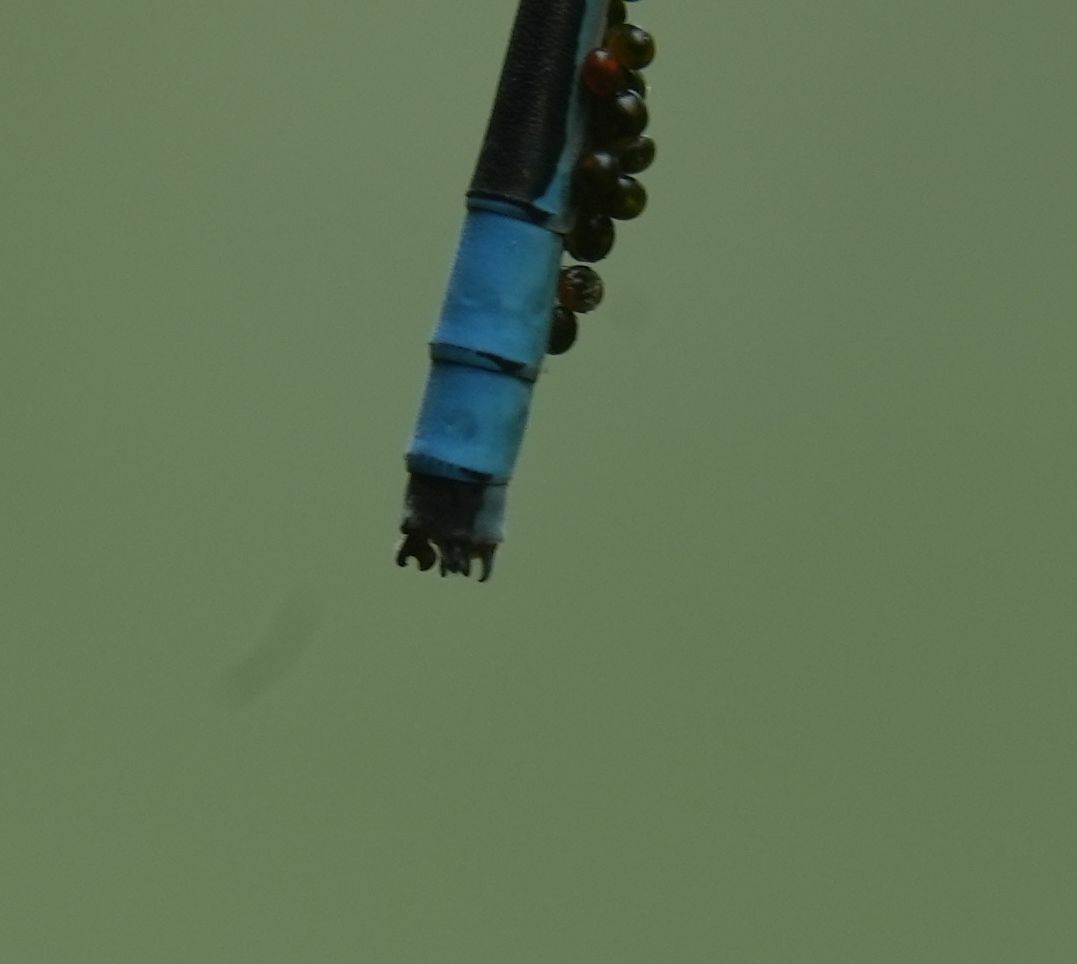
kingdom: Animalia
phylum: Arthropoda
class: Insecta
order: Odonata
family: Coenagrionidae
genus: Enallagma
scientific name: Enallagma ebrium
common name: Marsh bluet
